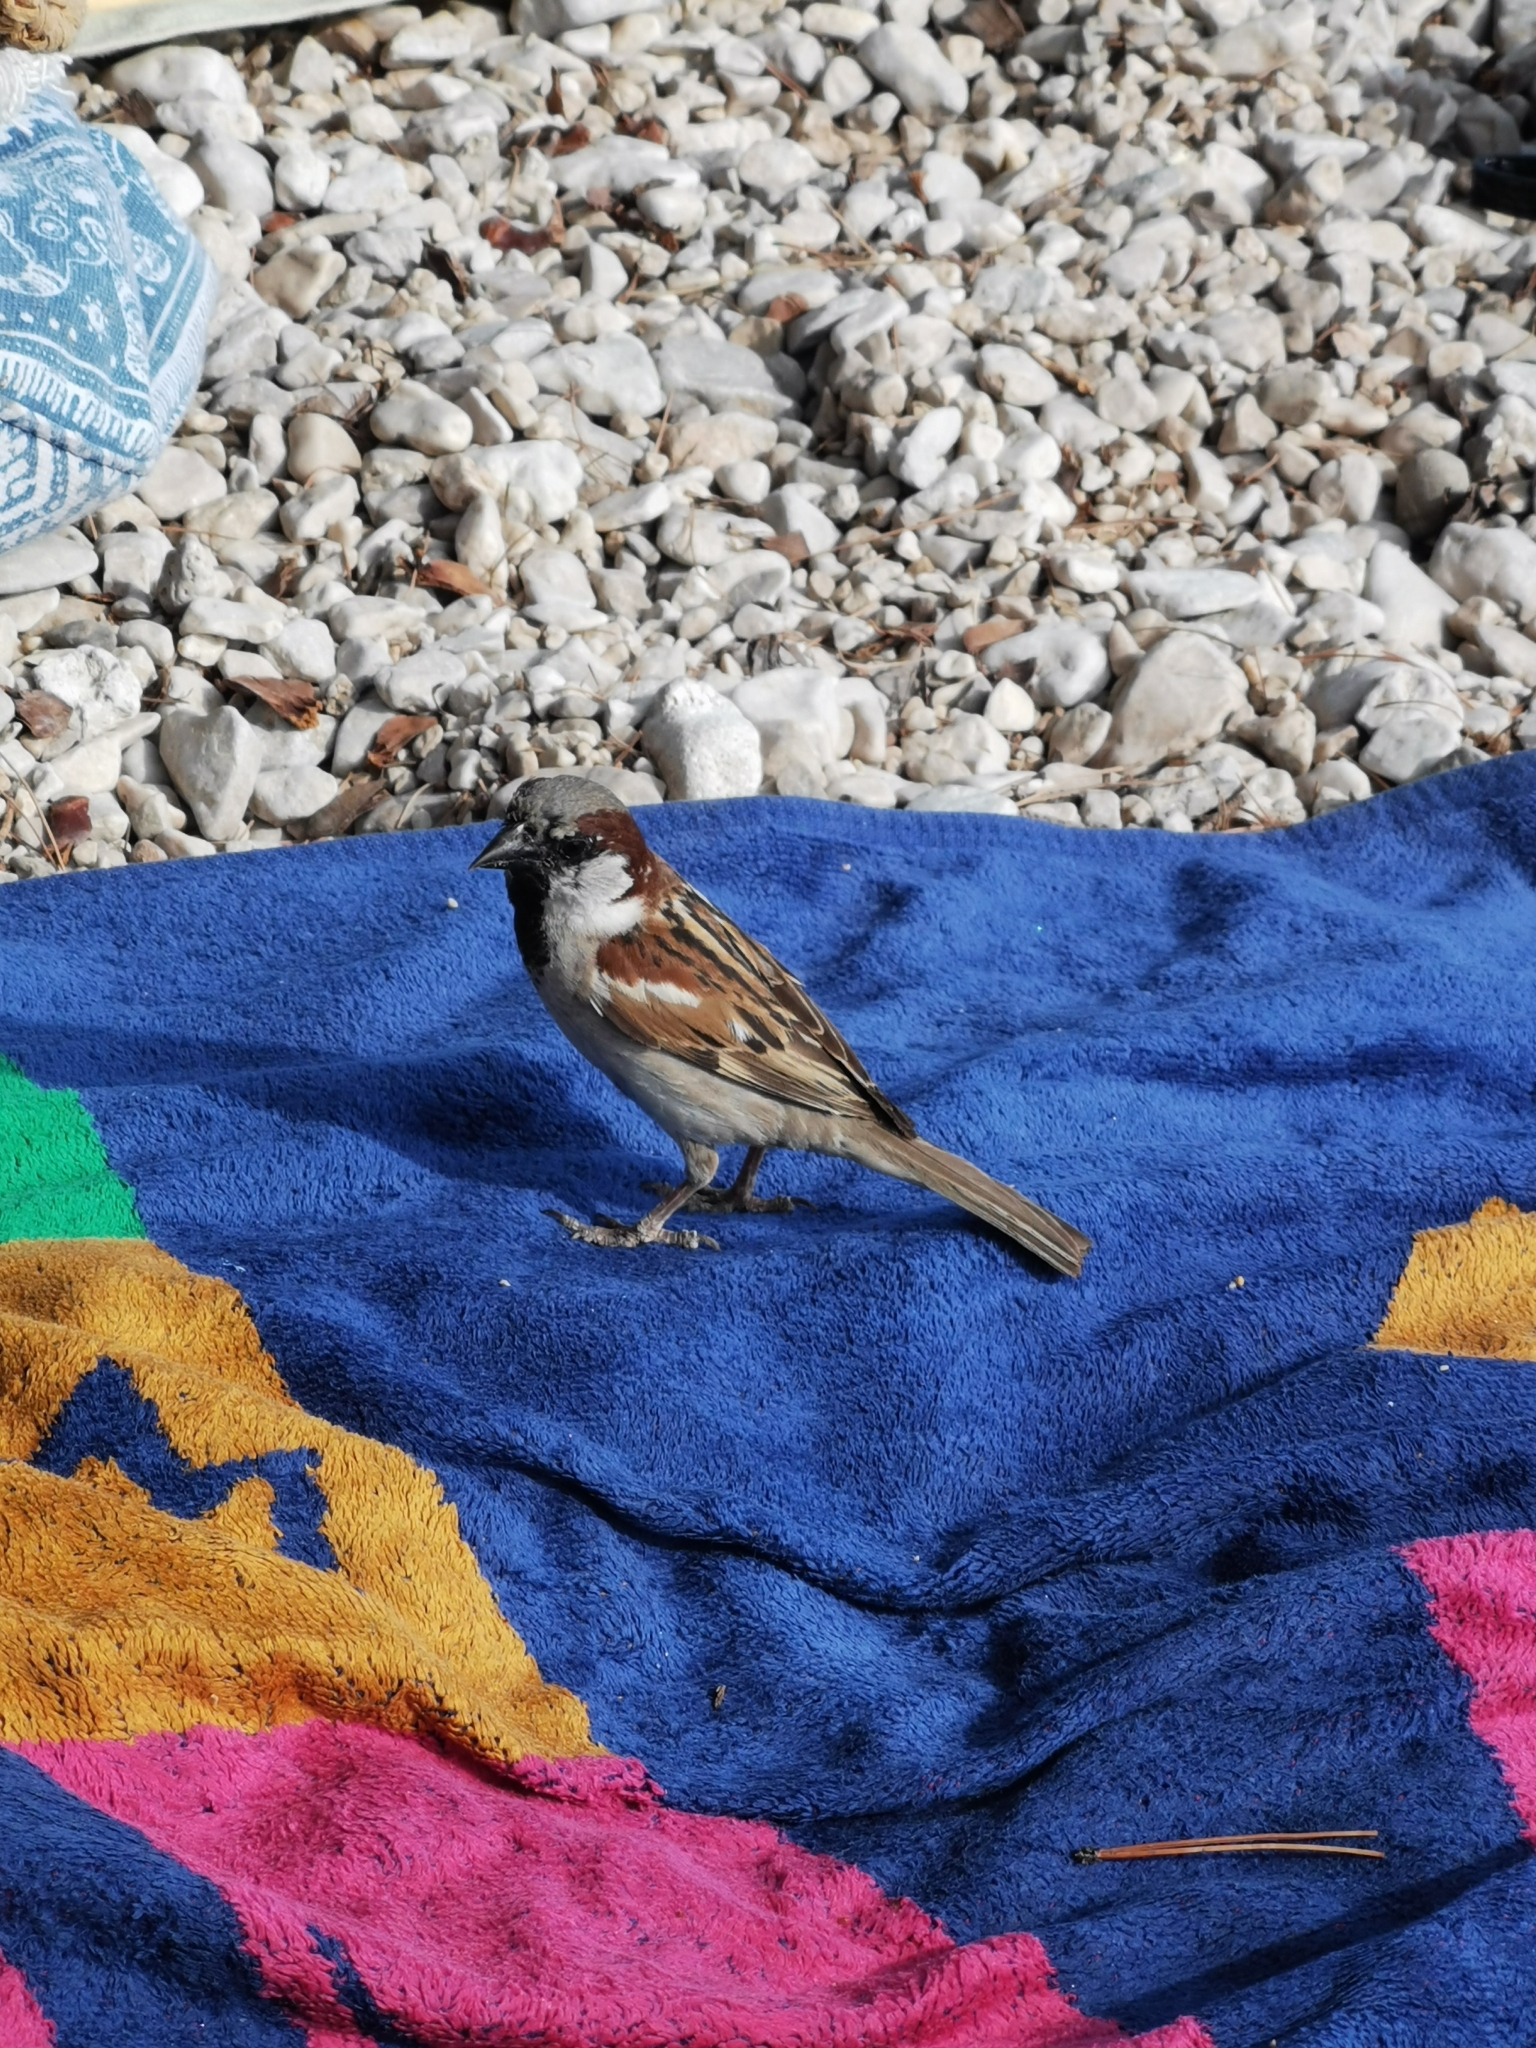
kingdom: Animalia
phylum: Chordata
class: Aves
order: Passeriformes
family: Passeridae
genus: Passer
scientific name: Passer domesticus
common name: House sparrow
